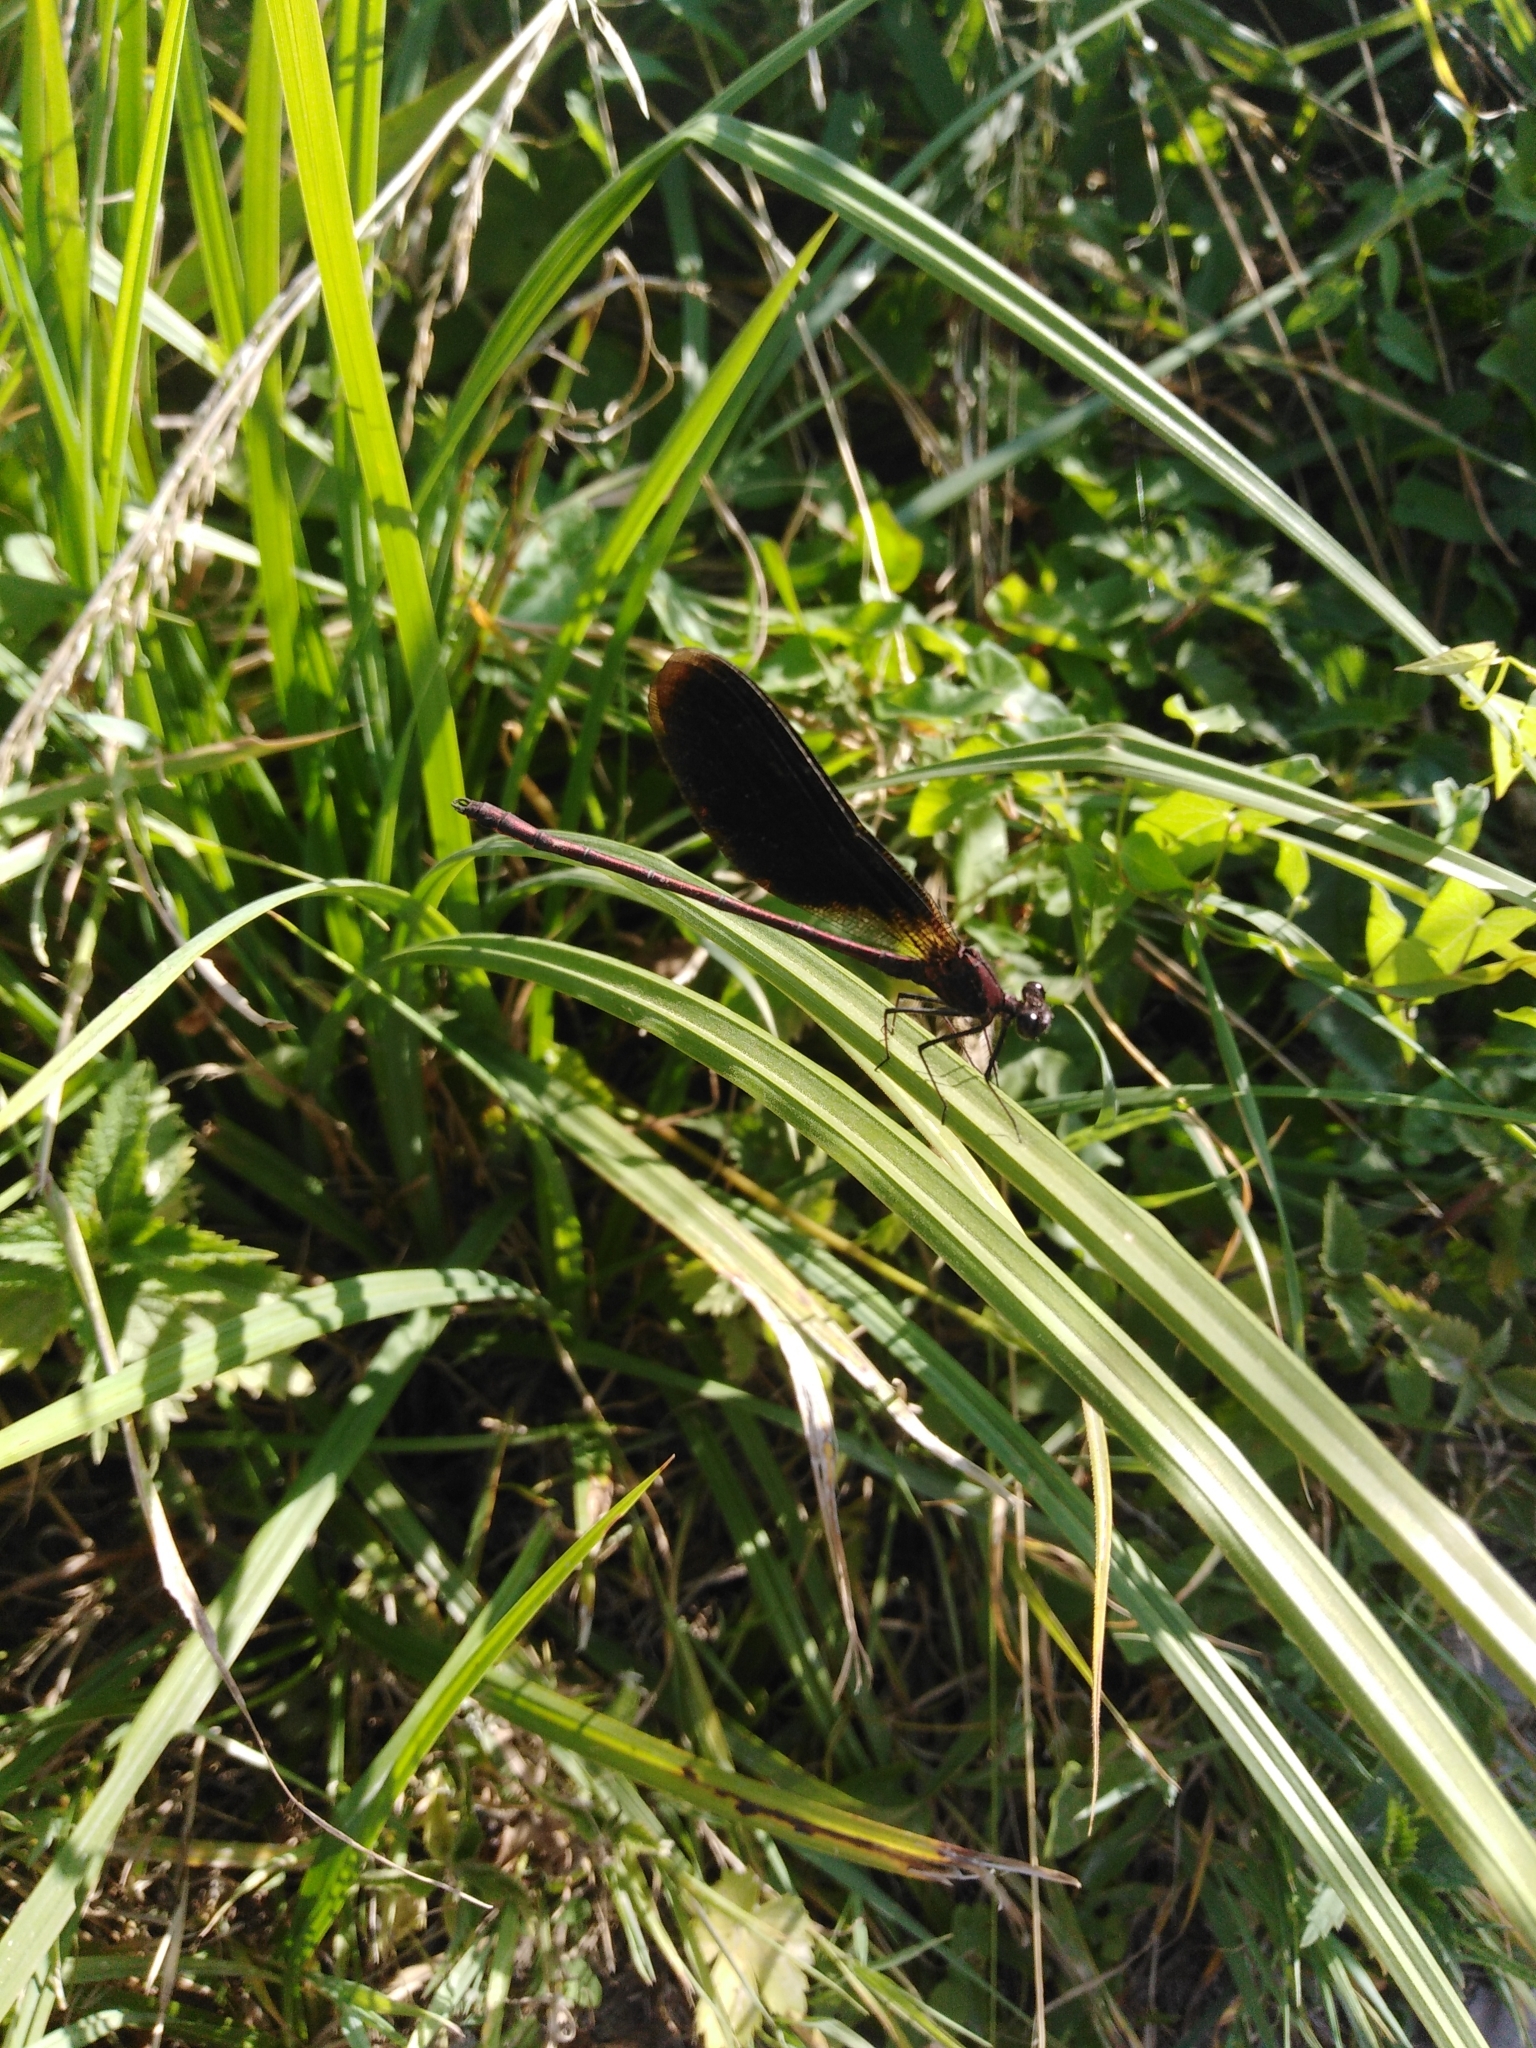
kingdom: Animalia
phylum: Arthropoda
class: Insecta
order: Odonata
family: Calopterygidae
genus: Calopteryx
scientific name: Calopteryx haemorrhoidalis
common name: Copper demoiselle
